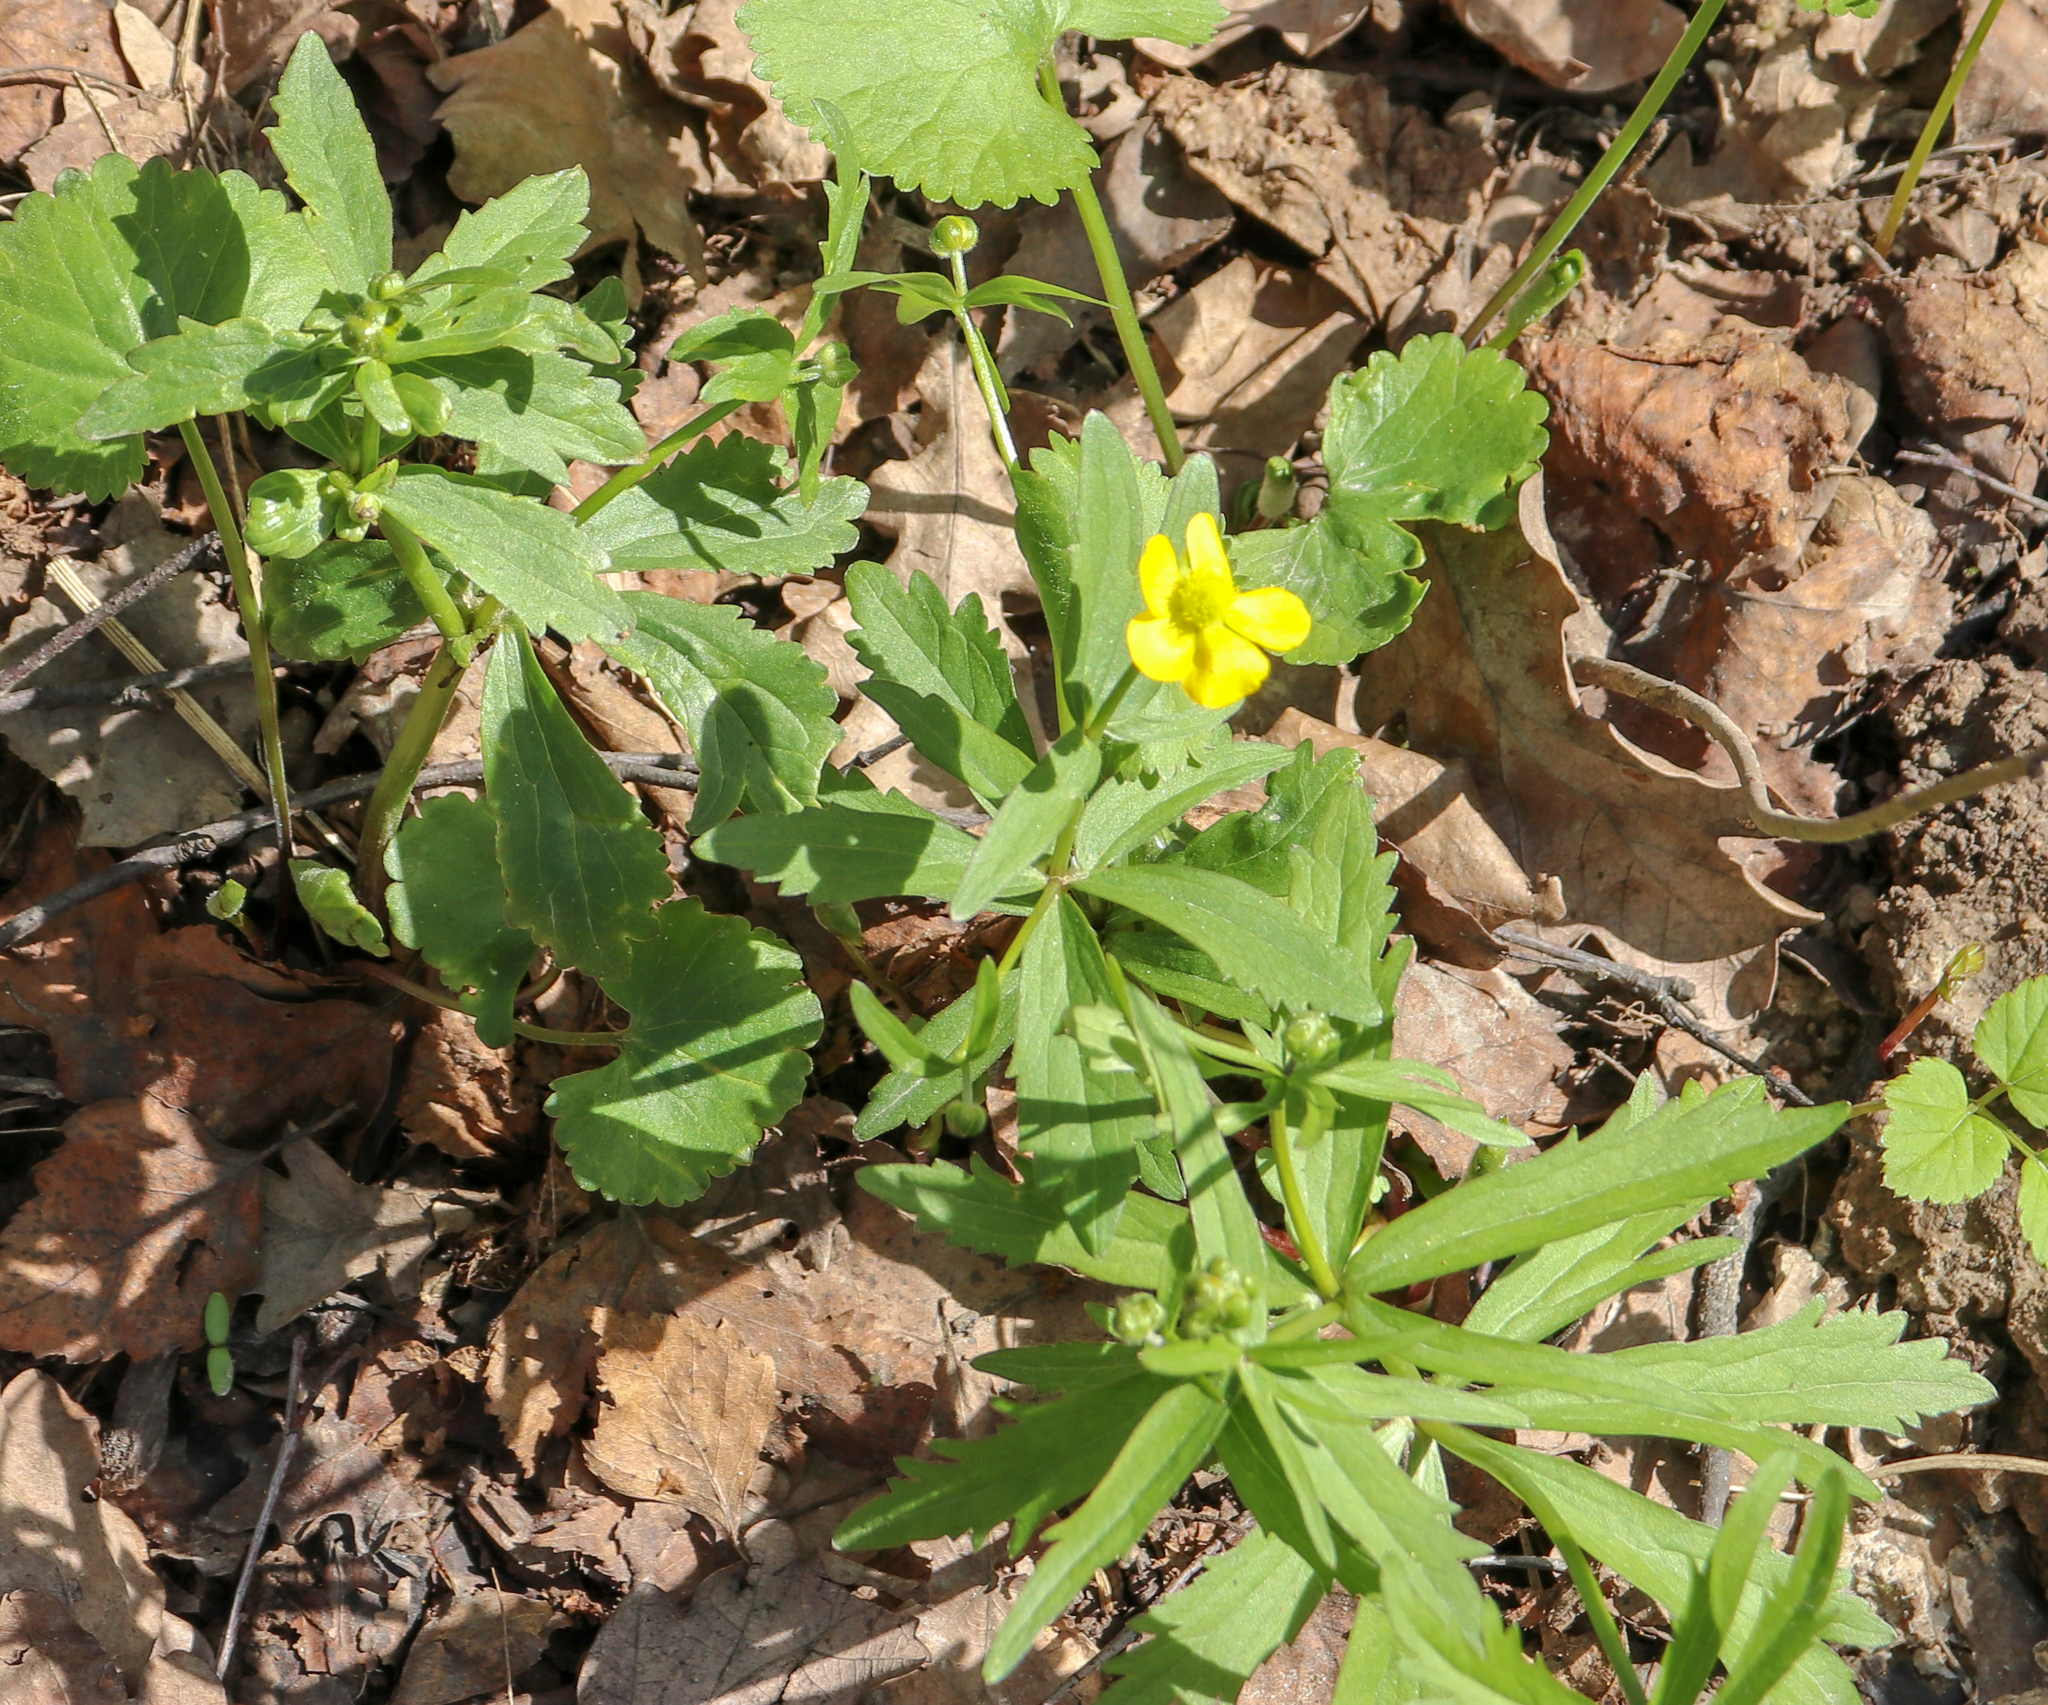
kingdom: Plantae
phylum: Tracheophyta
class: Magnoliopsida
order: Ranunculales
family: Ranunculaceae
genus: Ranunculus
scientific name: Ranunculus cassubicus
